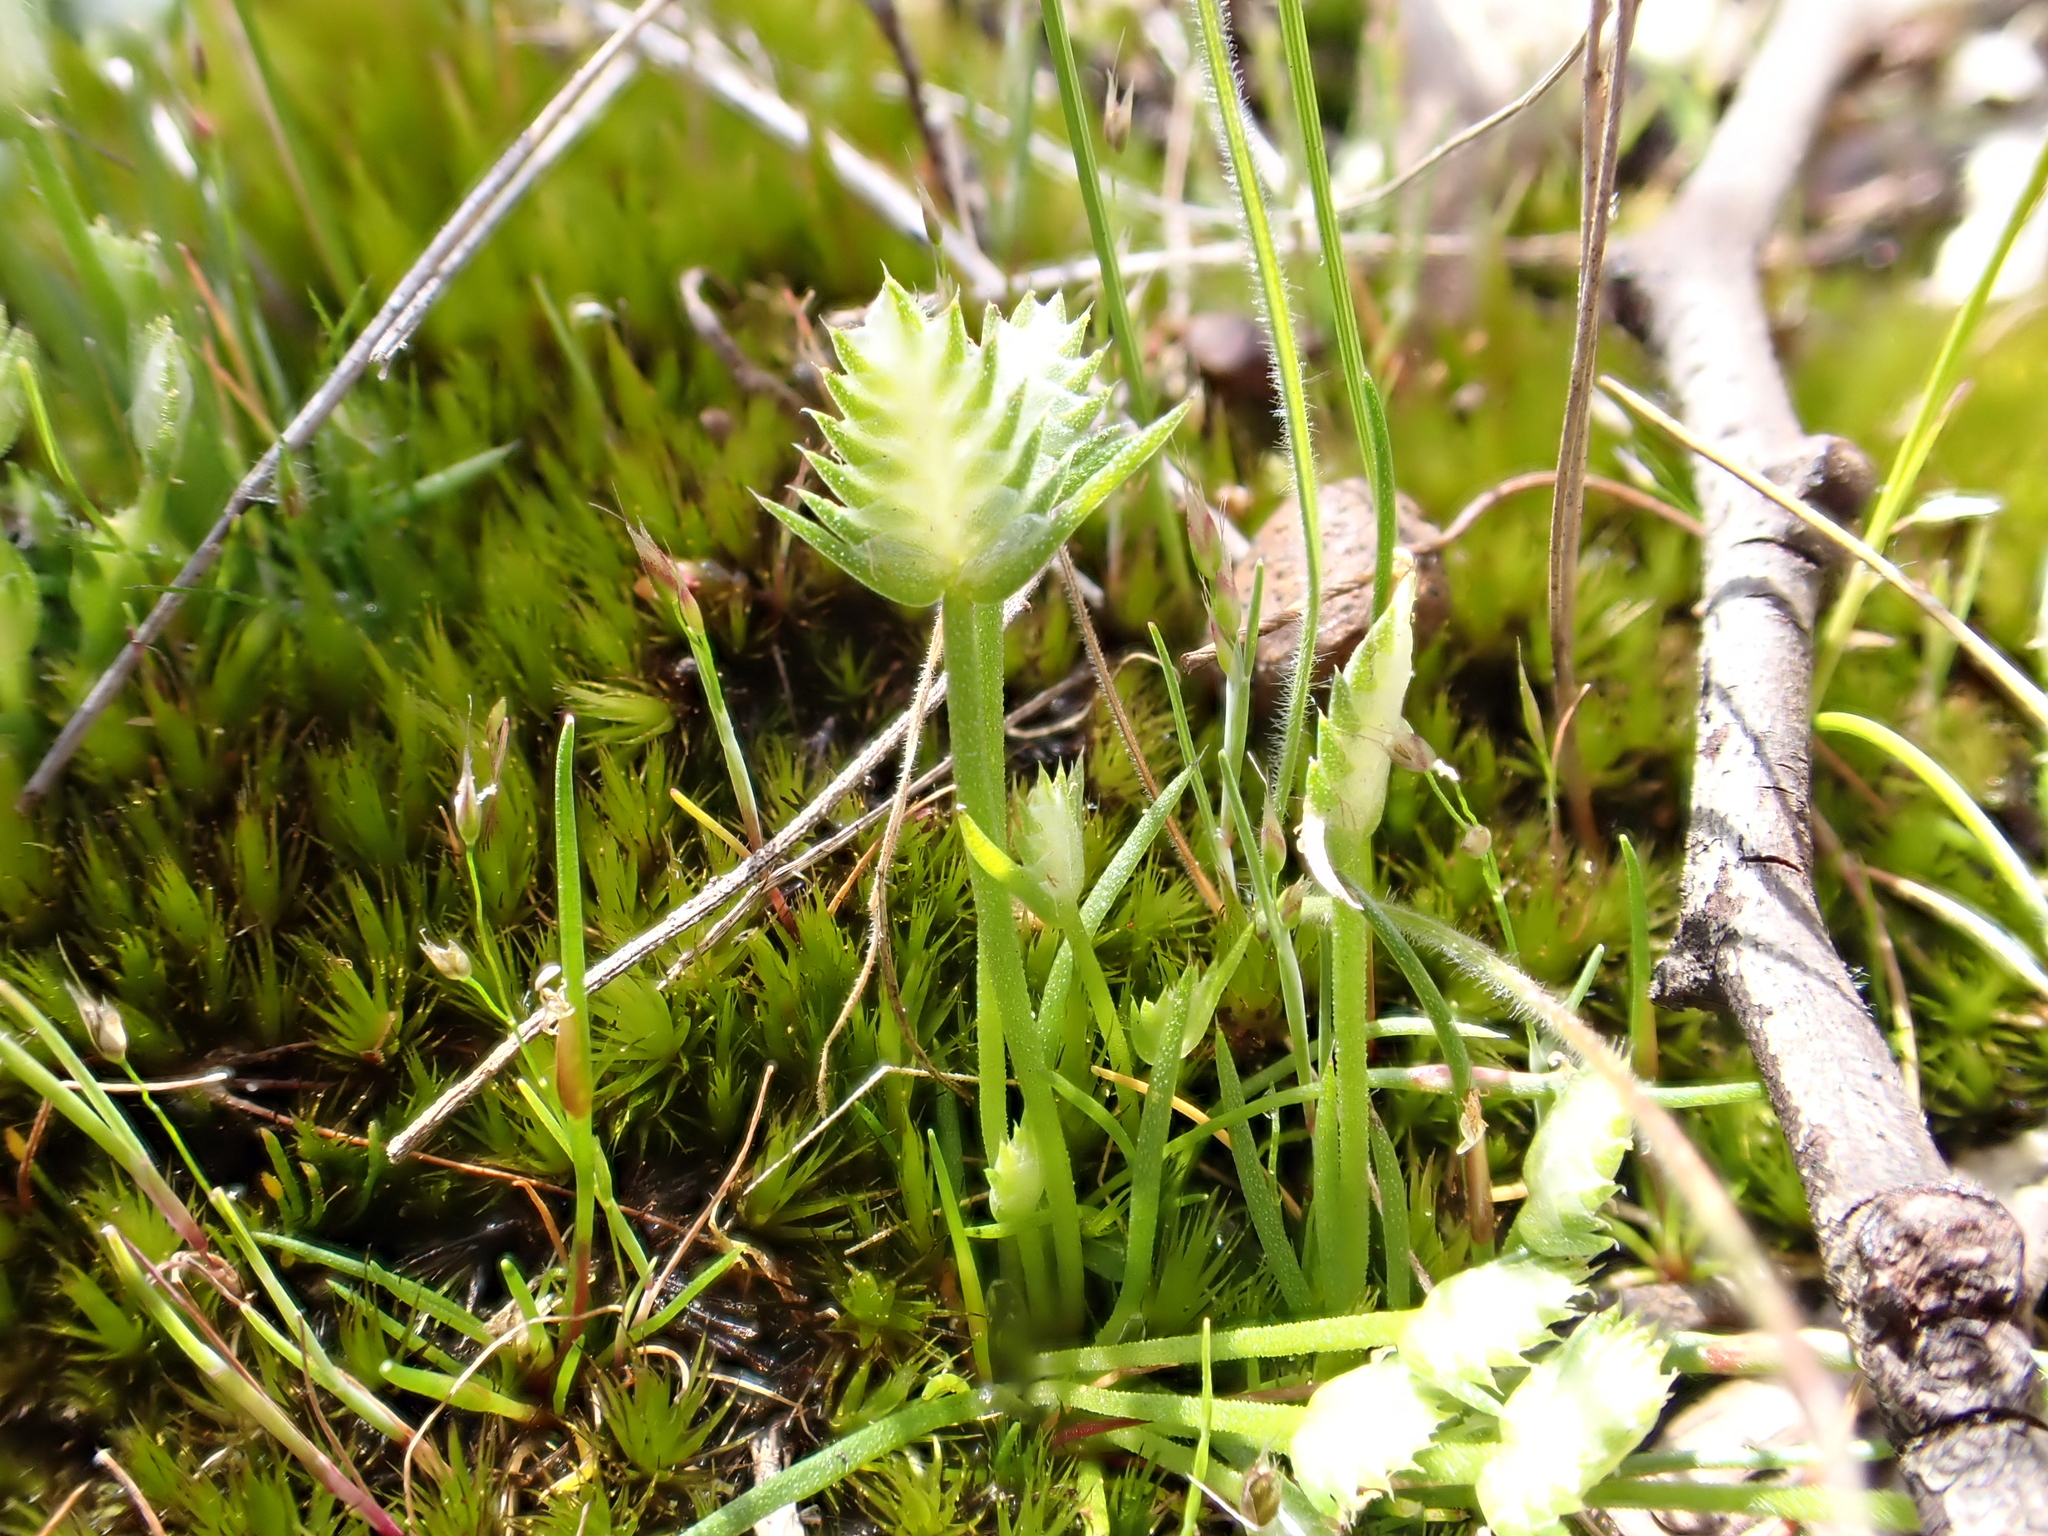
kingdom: Plantae
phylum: Tracheophyta
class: Liliopsida
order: Poales
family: Restionaceae
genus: Aphelia
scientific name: Aphelia pumilio
